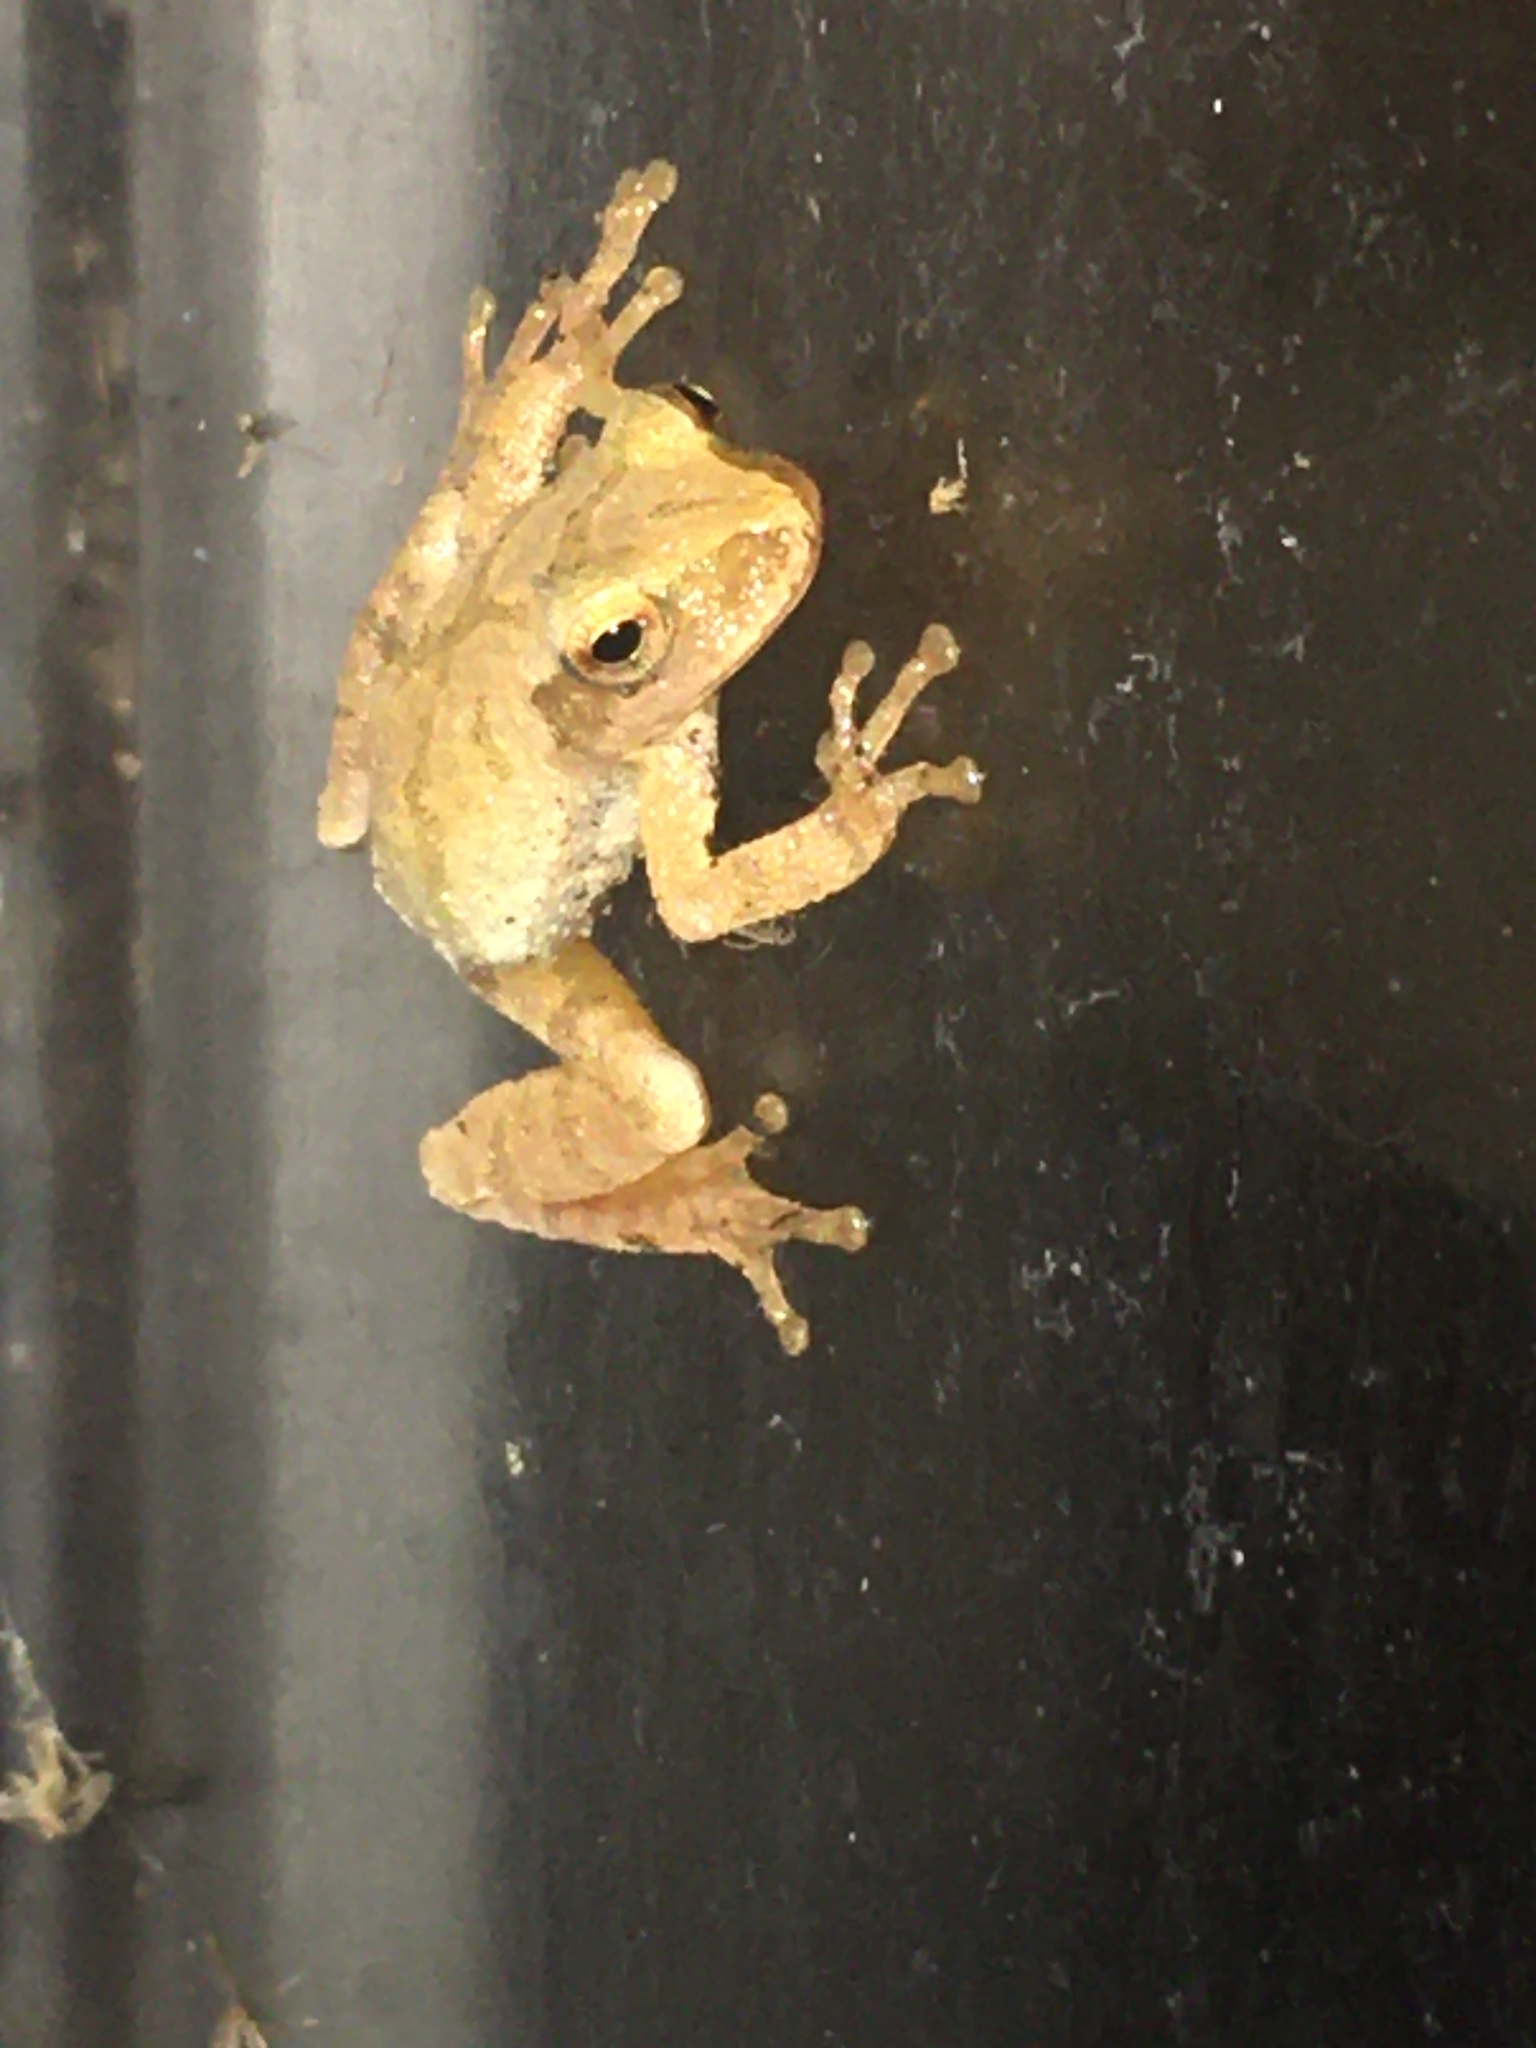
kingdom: Animalia
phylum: Chordata
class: Amphibia
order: Anura
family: Hylidae
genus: Pseudacris
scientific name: Pseudacris crucifer
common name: Spring peeper
